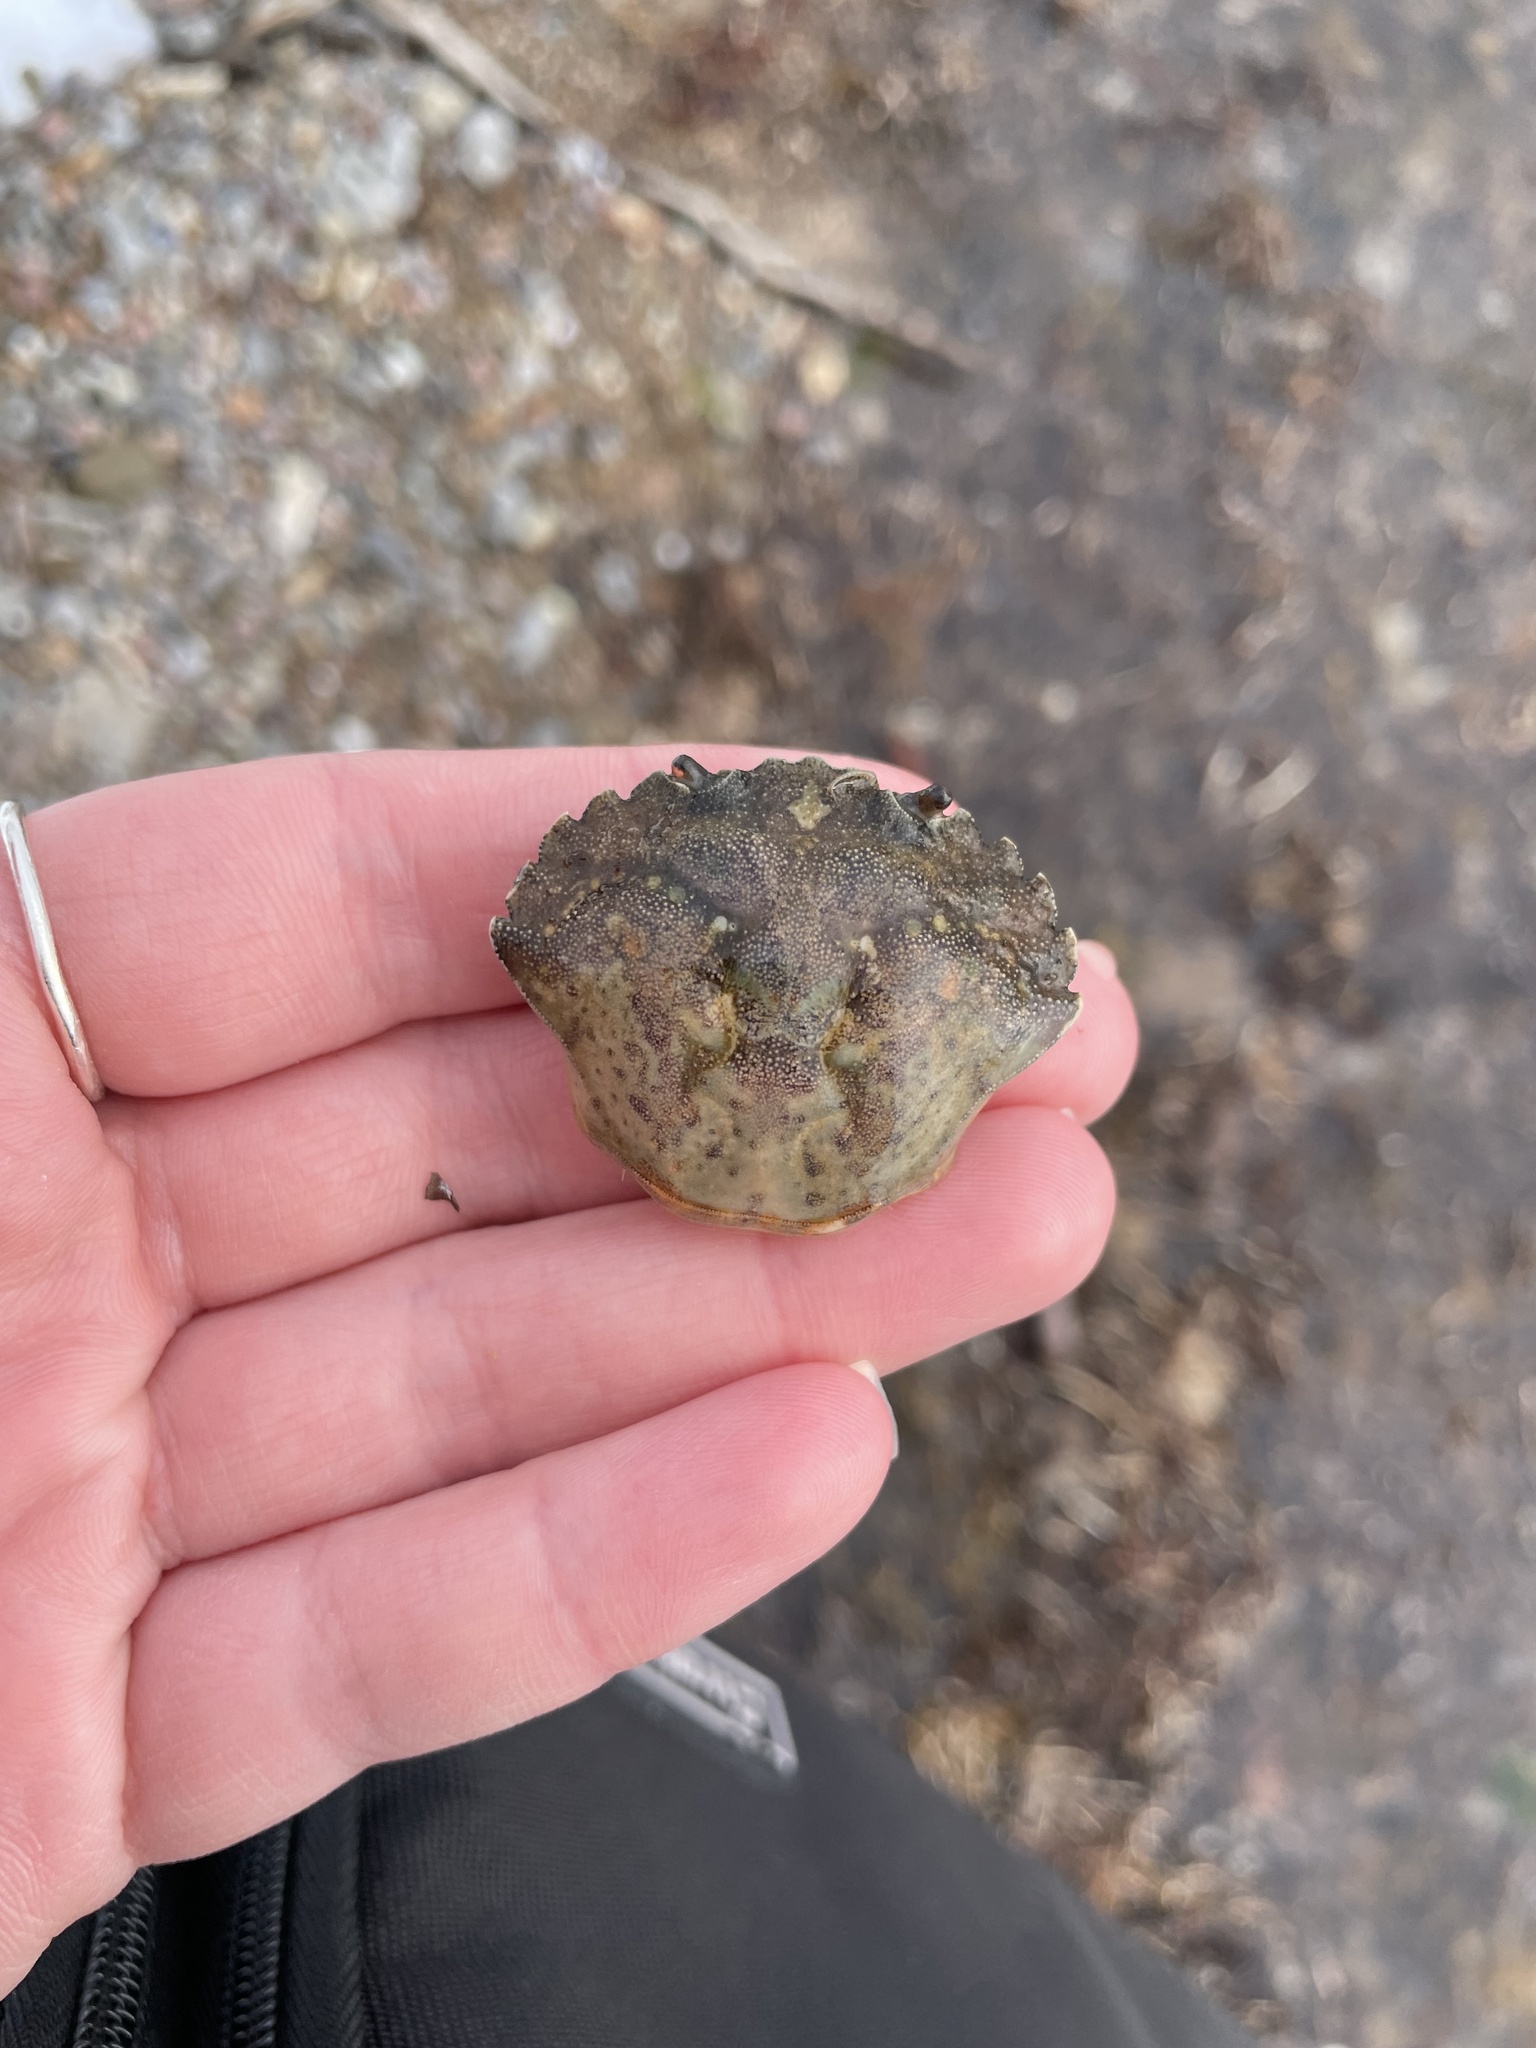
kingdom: Animalia
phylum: Arthropoda
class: Malacostraca
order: Decapoda
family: Carcinidae
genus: Carcinus
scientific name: Carcinus maenas
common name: European green crab
